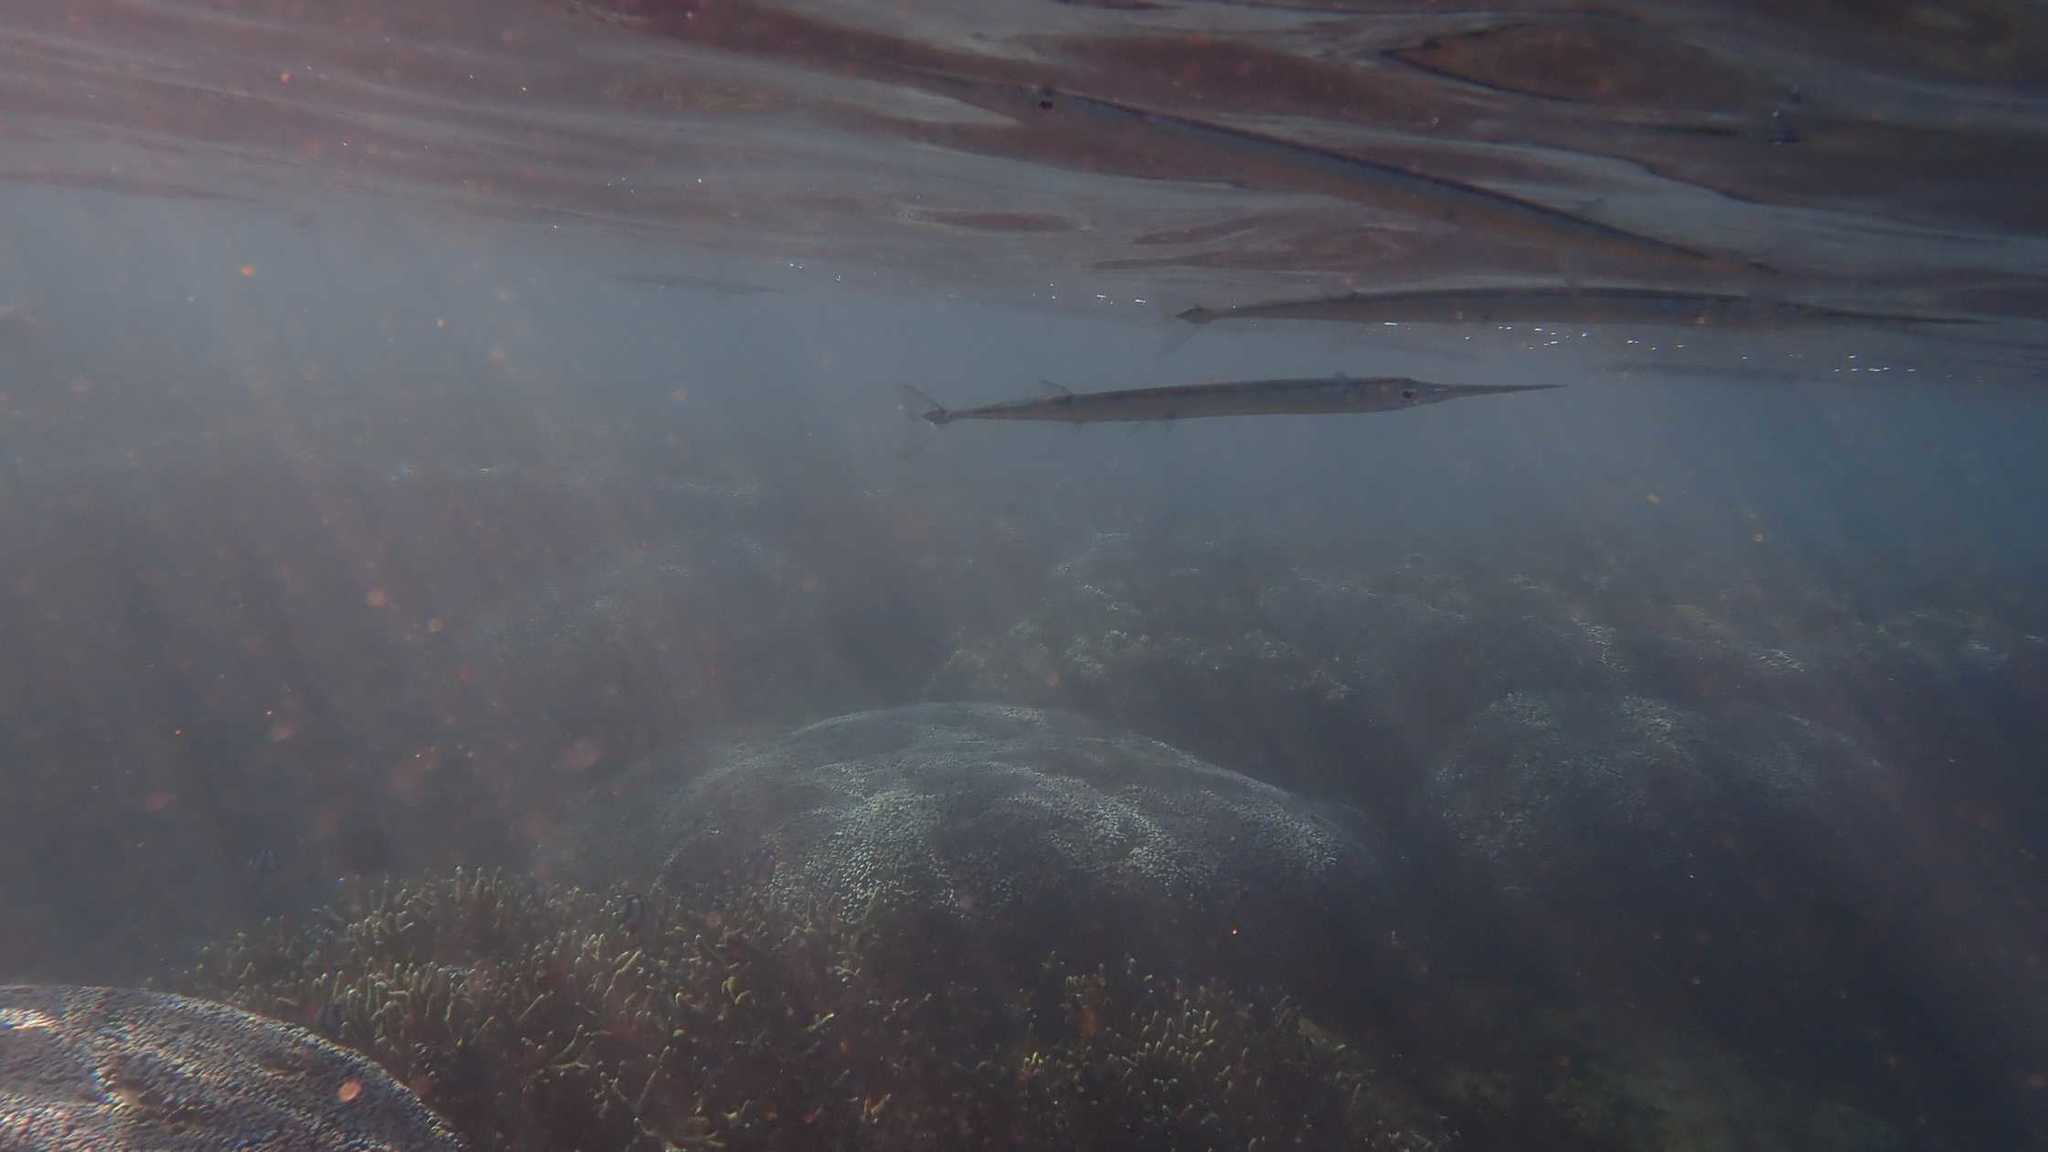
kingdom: Animalia
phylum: Chordata
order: Beloniformes
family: Belonidae
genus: Platybelone
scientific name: Platybelone argalus
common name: Keeltail needlefish
